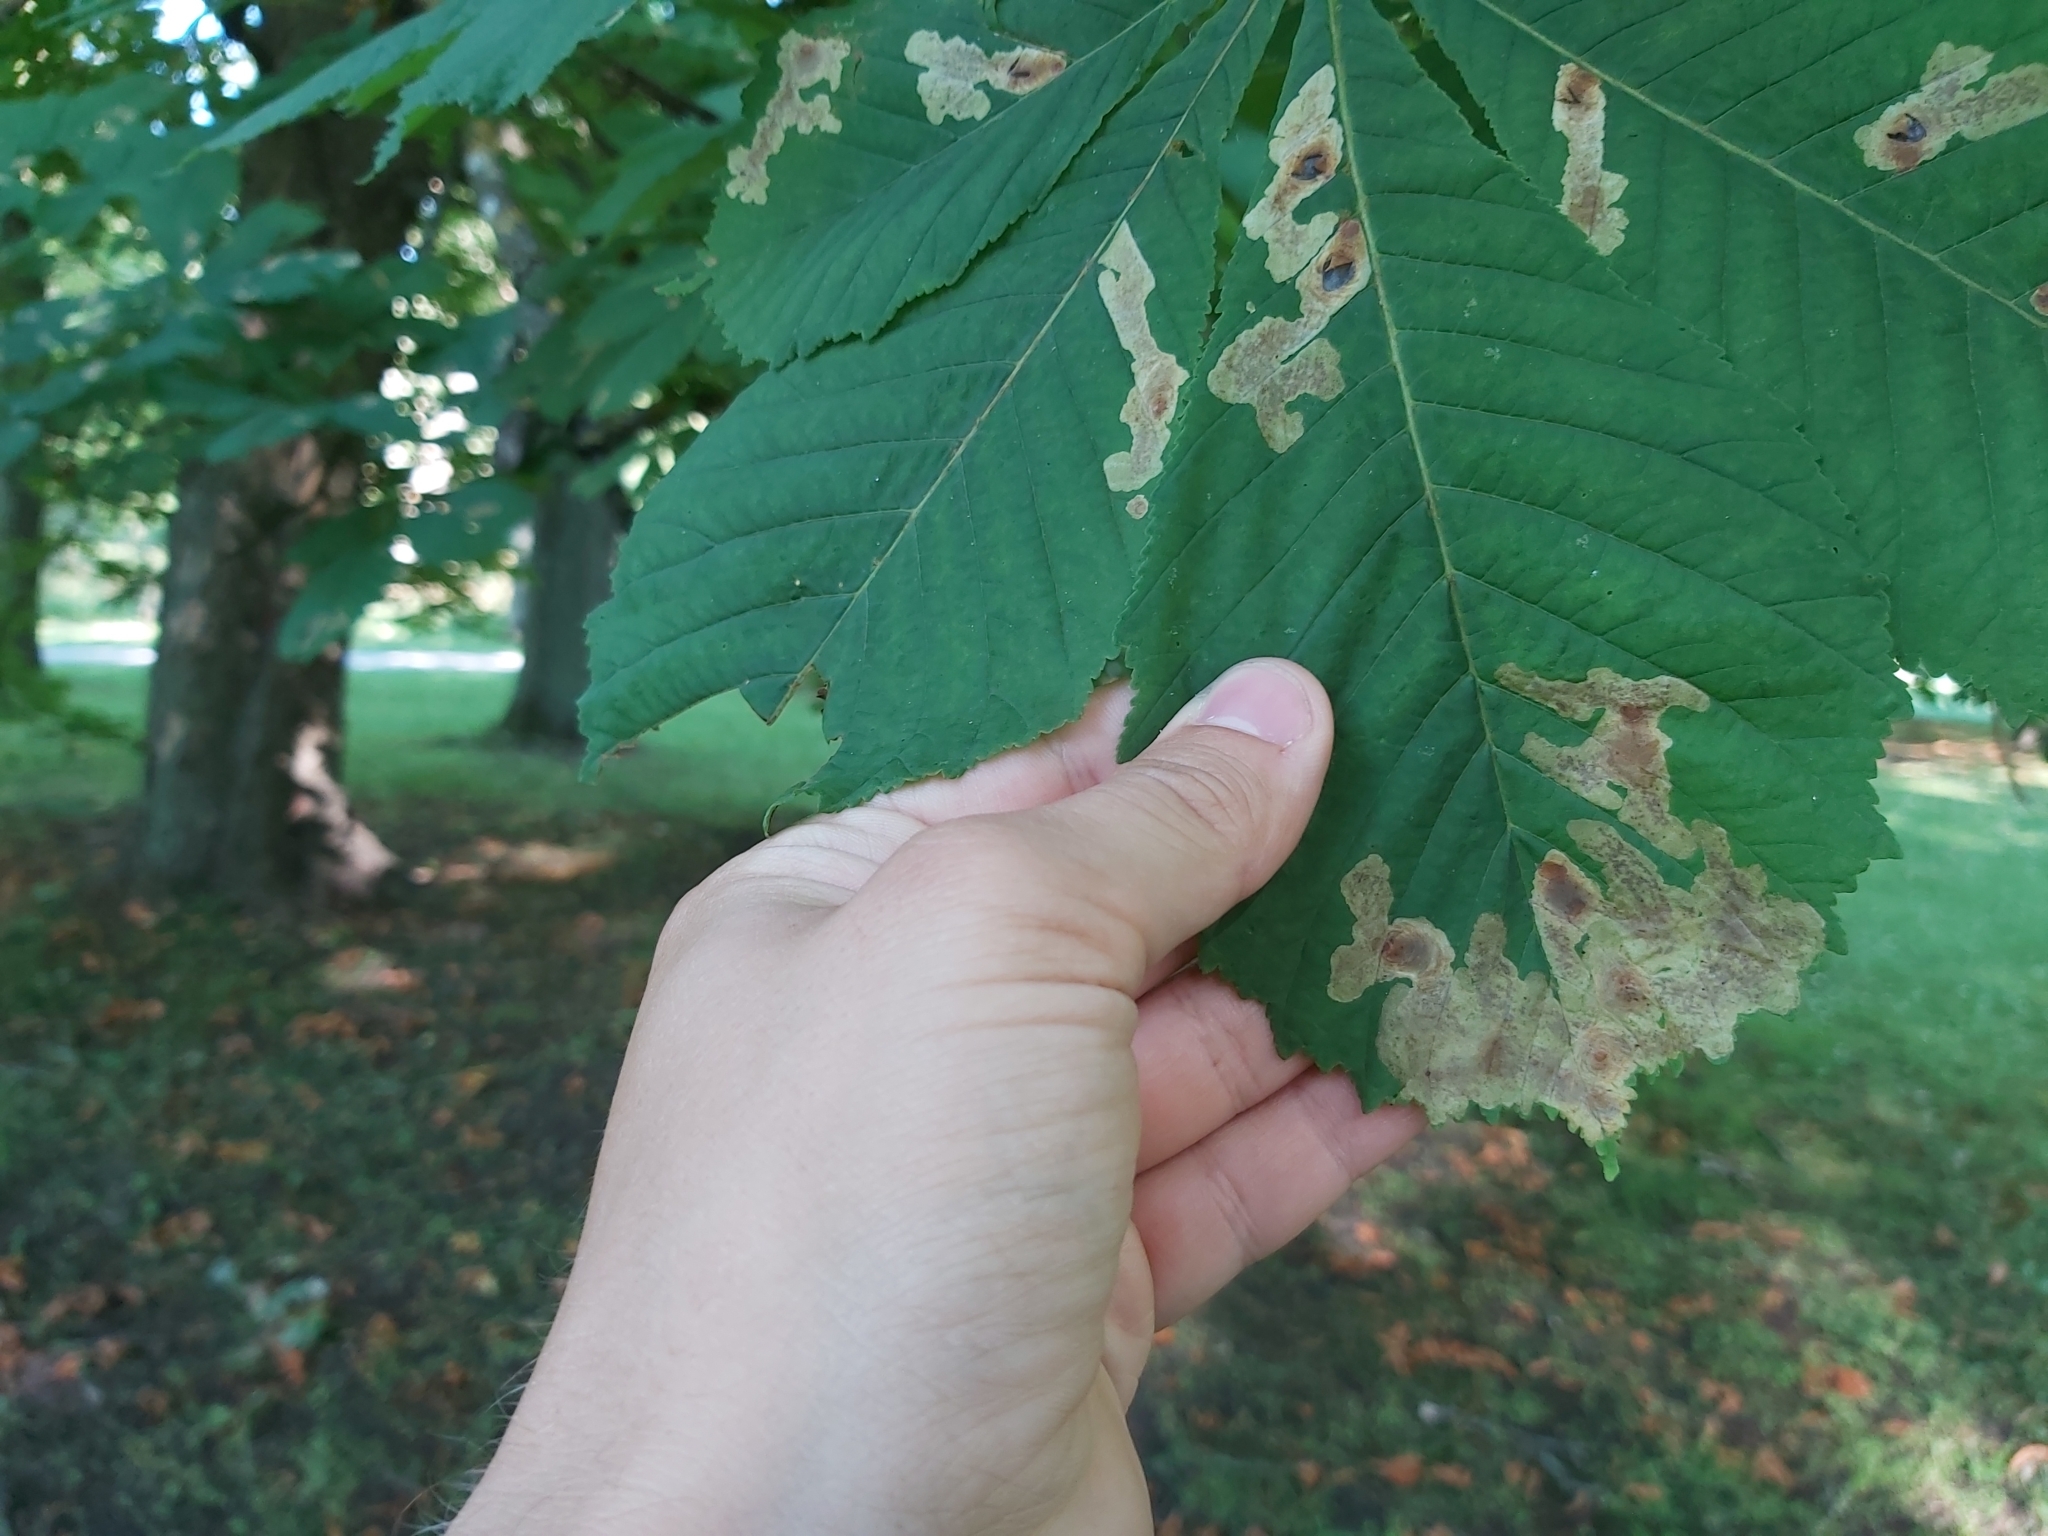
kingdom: Animalia
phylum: Arthropoda
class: Insecta
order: Lepidoptera
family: Gracillariidae
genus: Cameraria
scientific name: Cameraria ohridella
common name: Horse-chestnut leaf-miner
